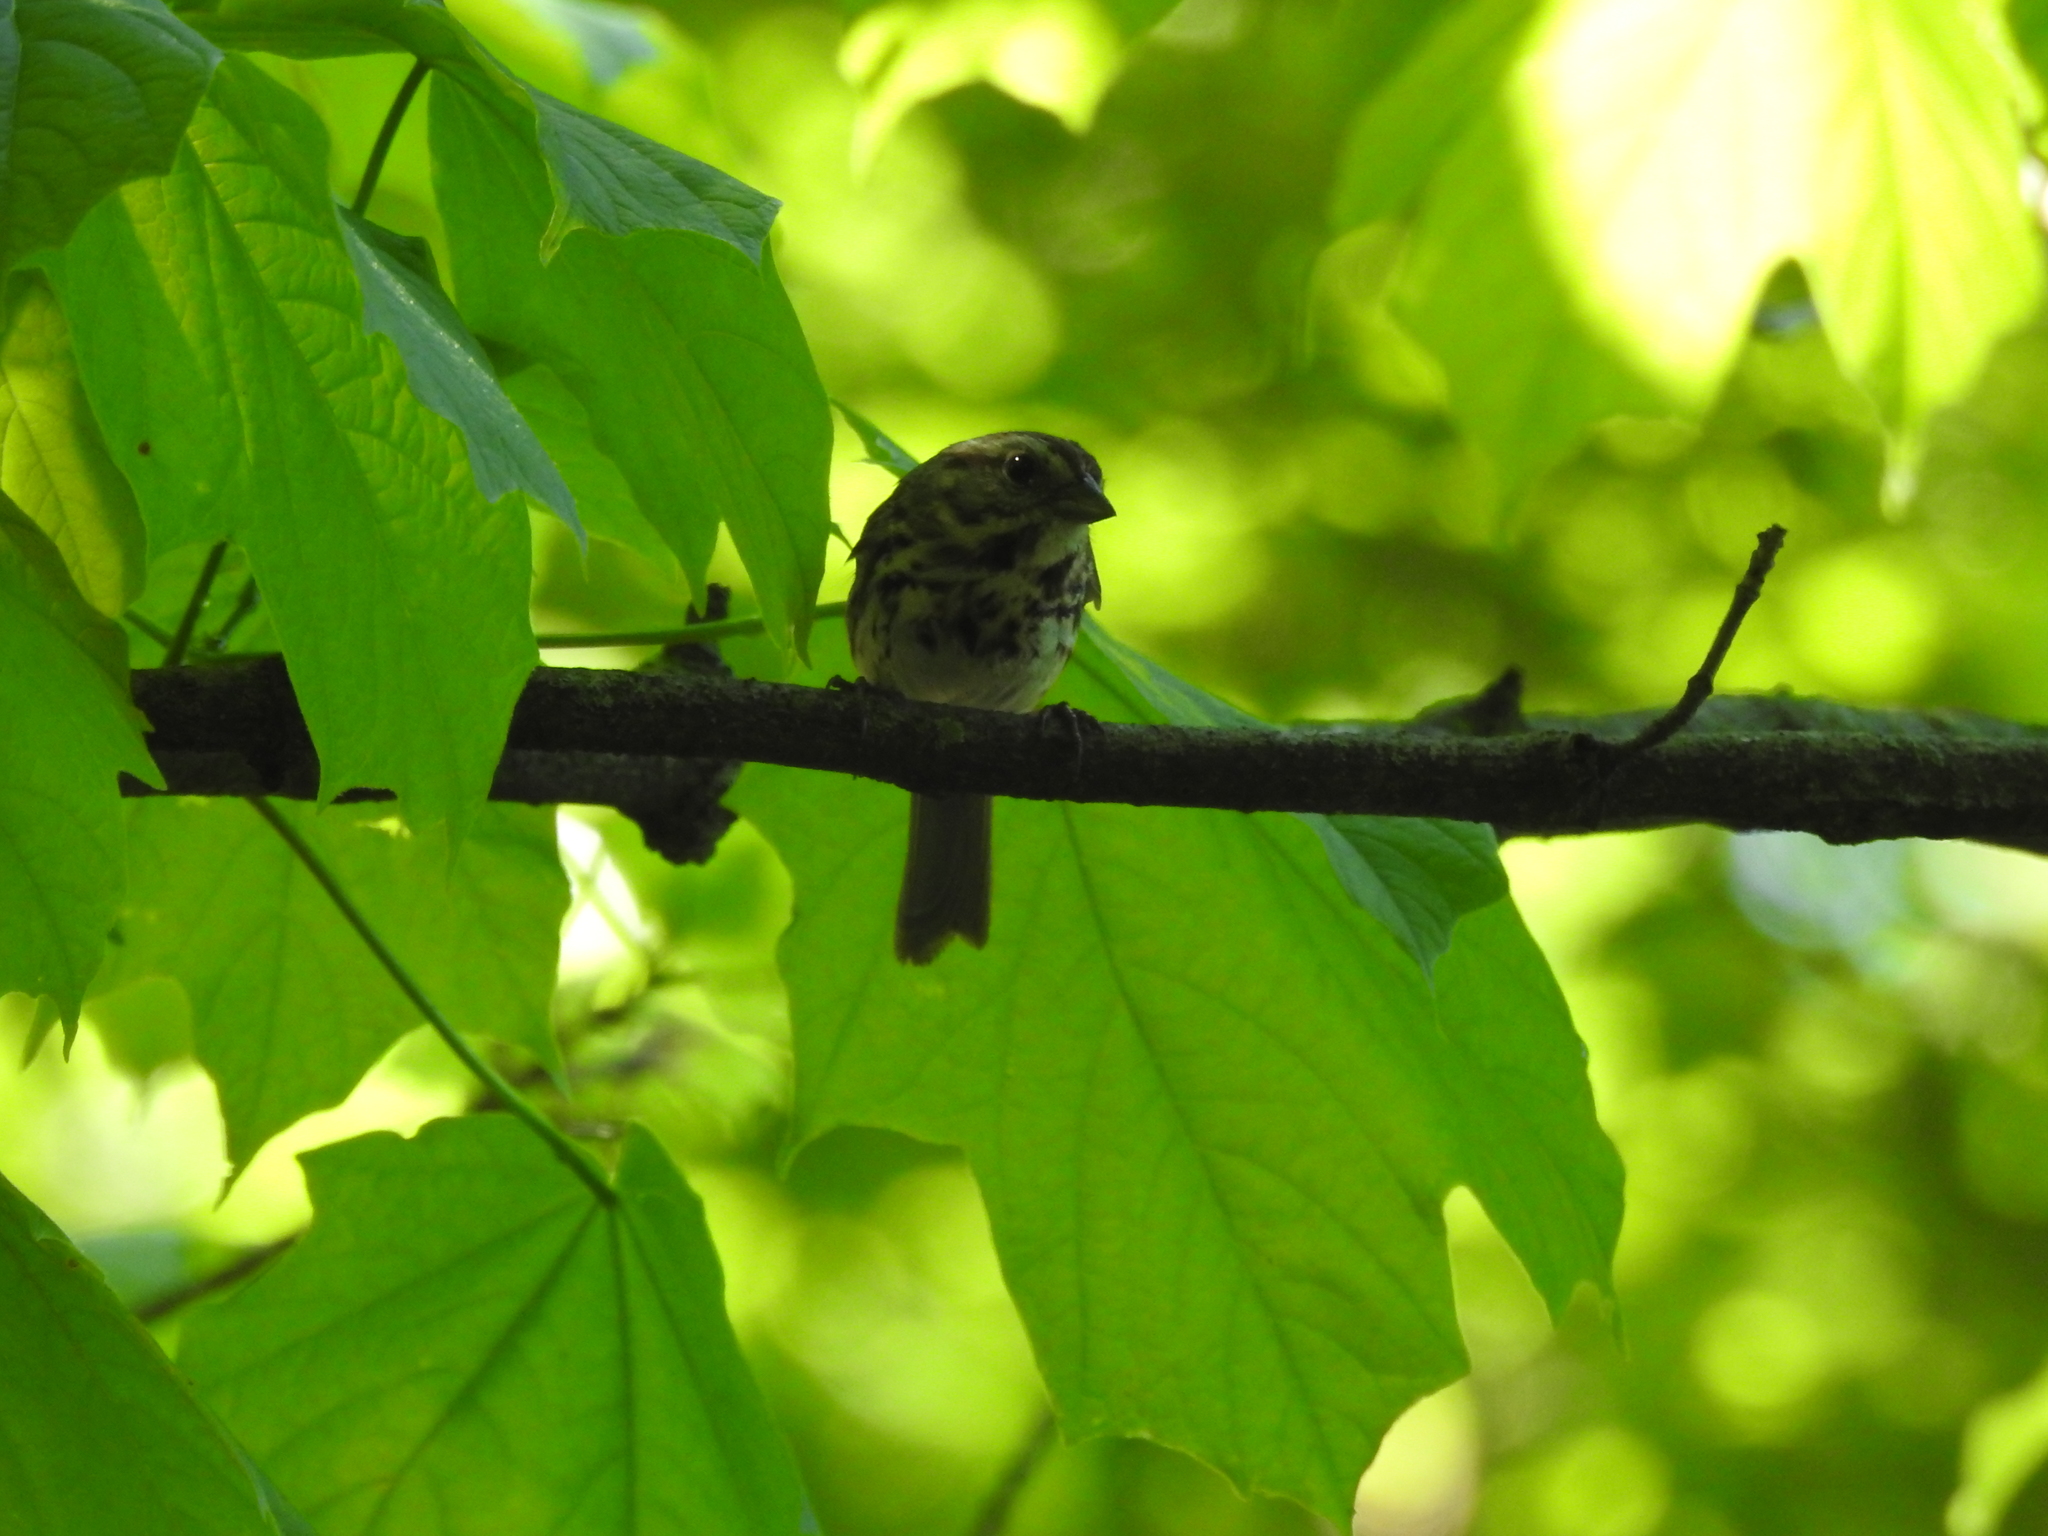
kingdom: Animalia
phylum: Chordata
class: Aves
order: Passeriformes
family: Passerellidae
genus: Melospiza
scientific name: Melospiza melodia
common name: Song sparrow
